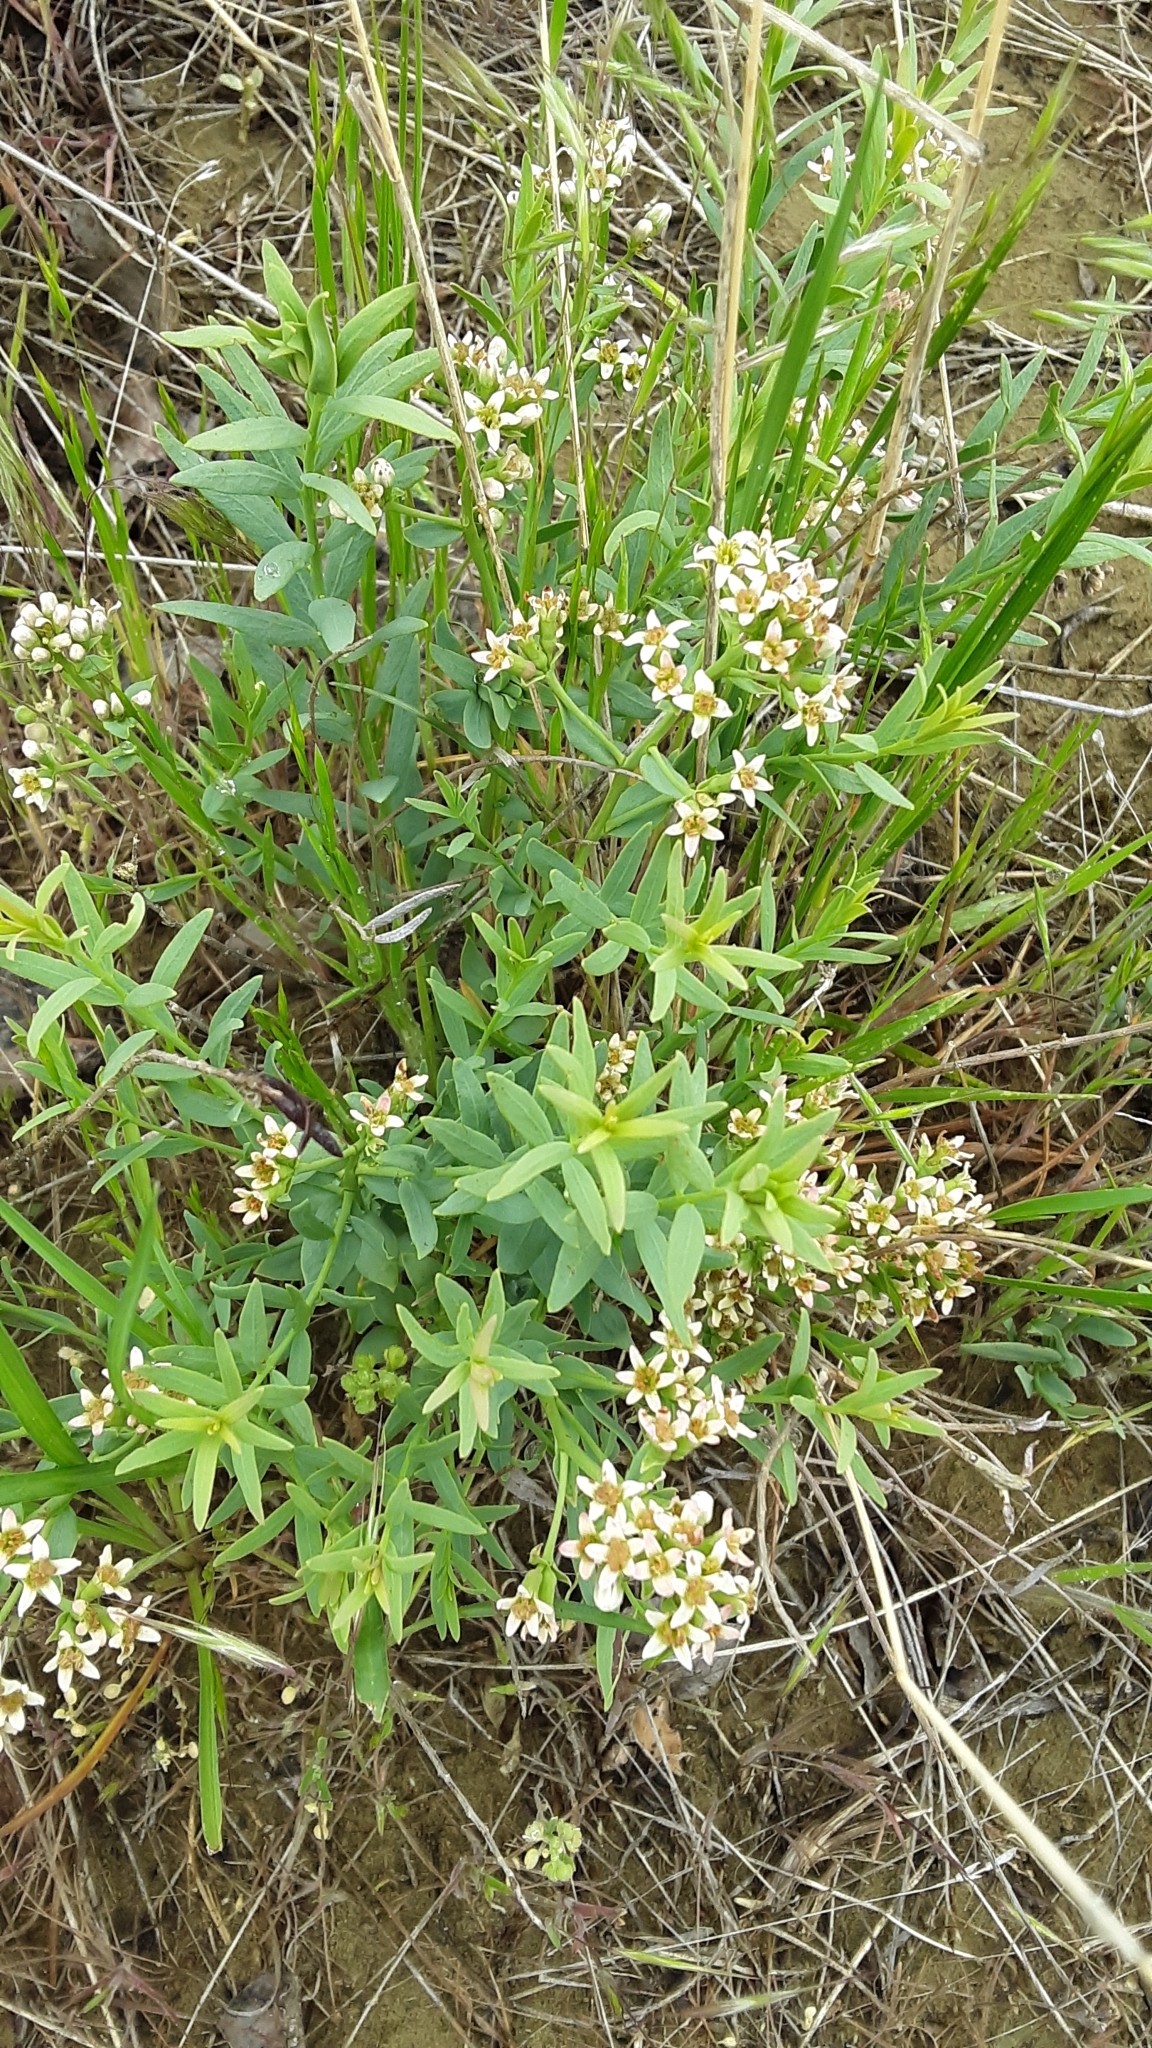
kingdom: Plantae
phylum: Tracheophyta
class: Magnoliopsida
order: Santalales
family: Comandraceae
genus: Comandra
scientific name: Comandra umbellata
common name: Bastard toadflax
